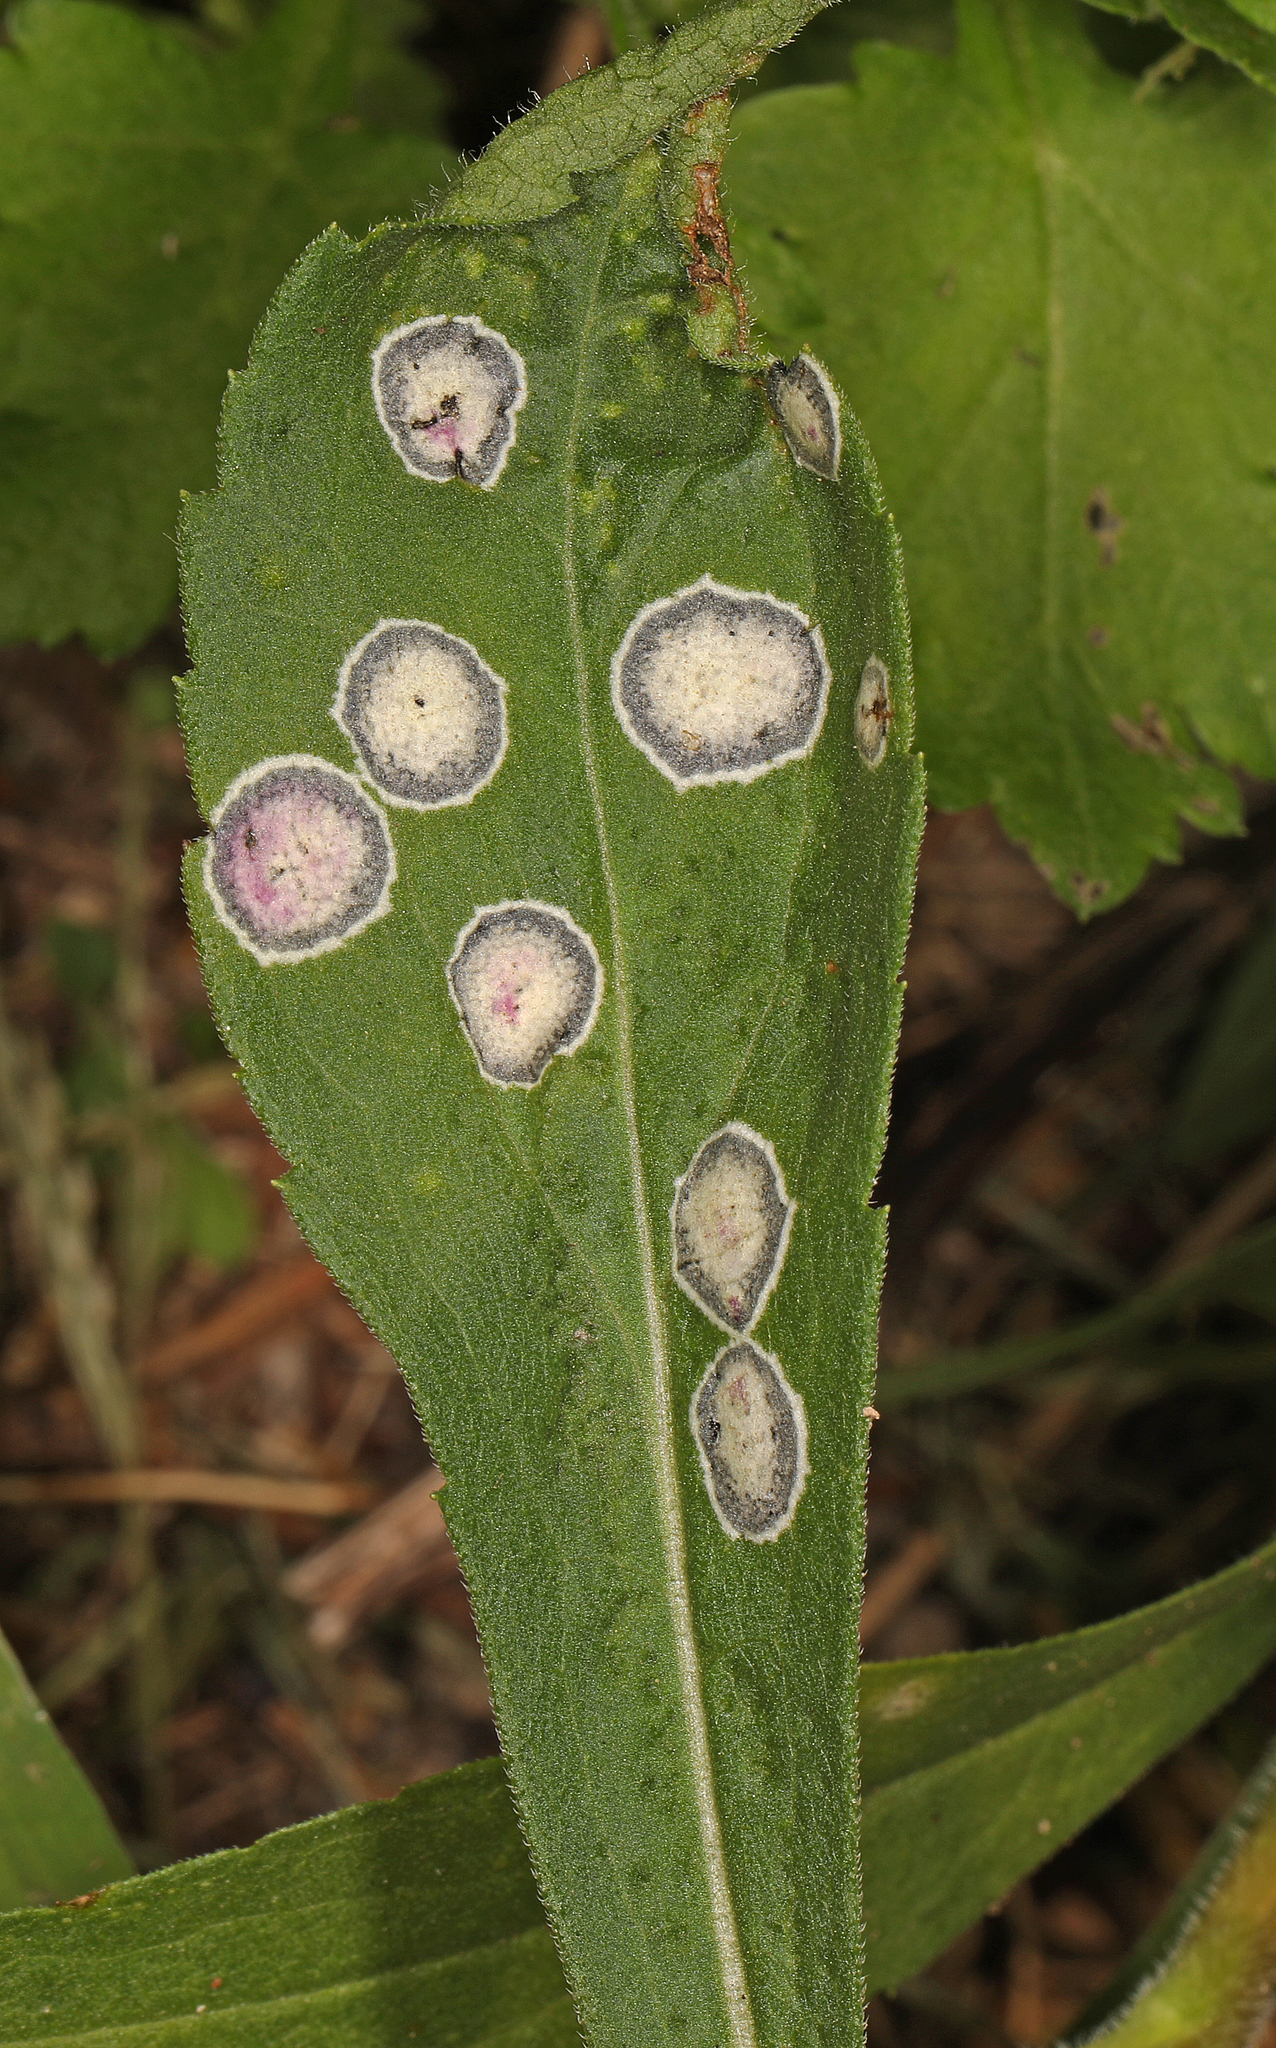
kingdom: Animalia
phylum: Arthropoda
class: Insecta
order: Diptera
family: Cecidomyiidae
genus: Asteromyia
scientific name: Asteromyia carbonifera
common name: Carbonifera goldenrod gall midge
